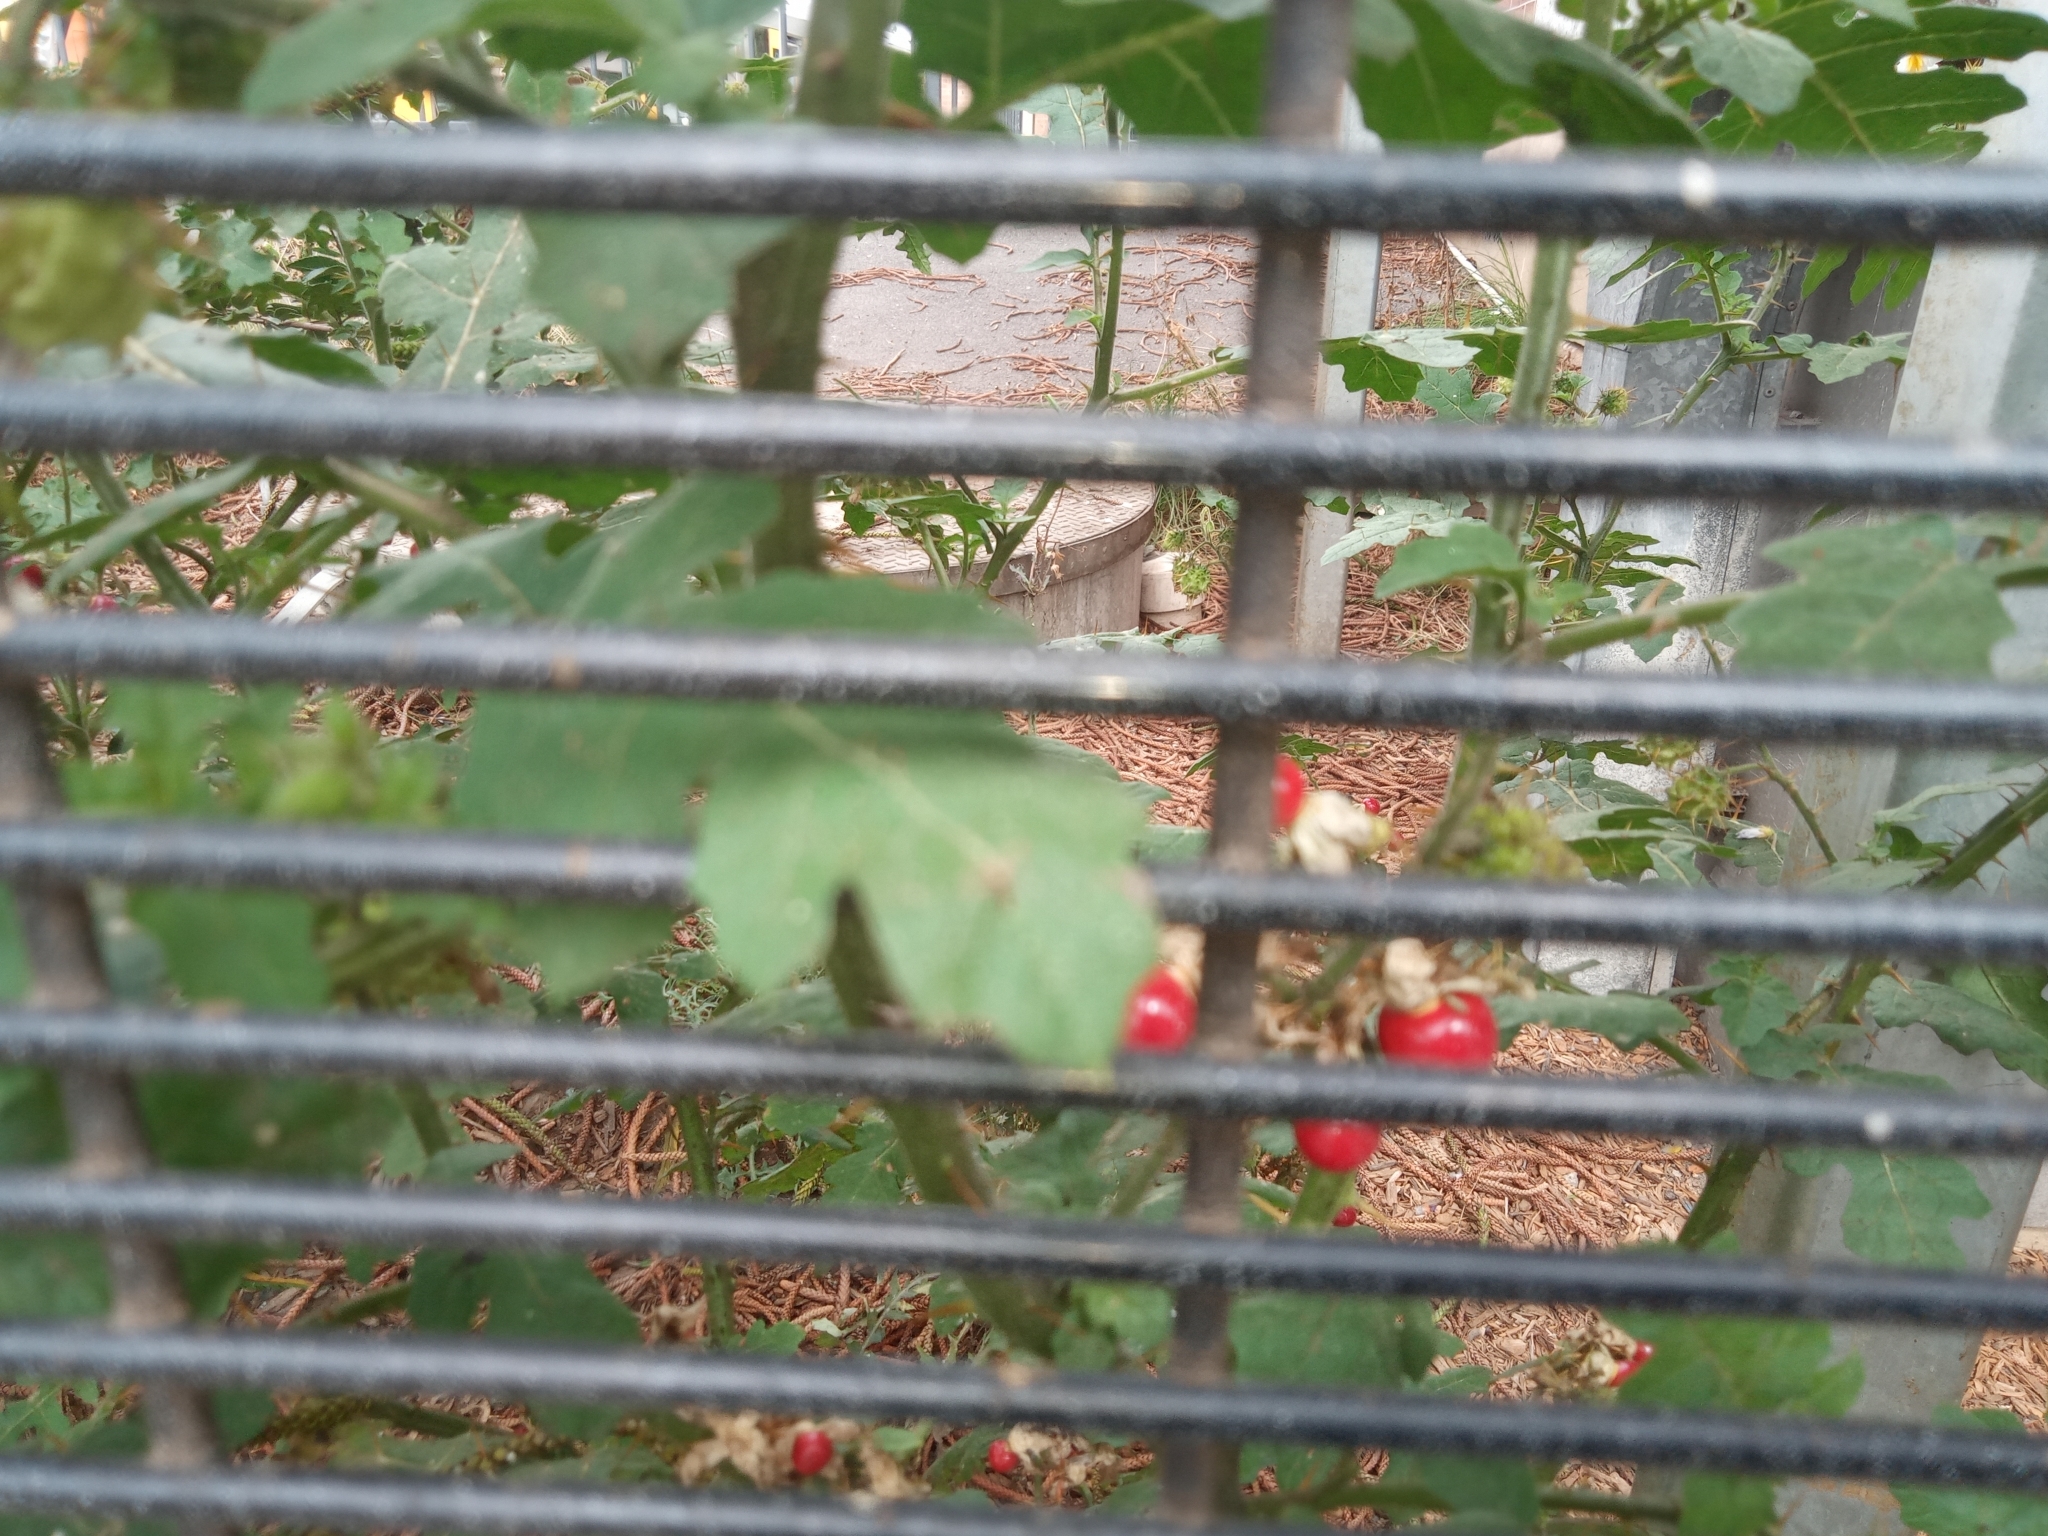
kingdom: Plantae
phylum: Tracheophyta
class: Magnoliopsida
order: Solanales
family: Solanaceae
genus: Solanum
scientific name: Solanum sisymbriifolium
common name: Red buffalo-bur
